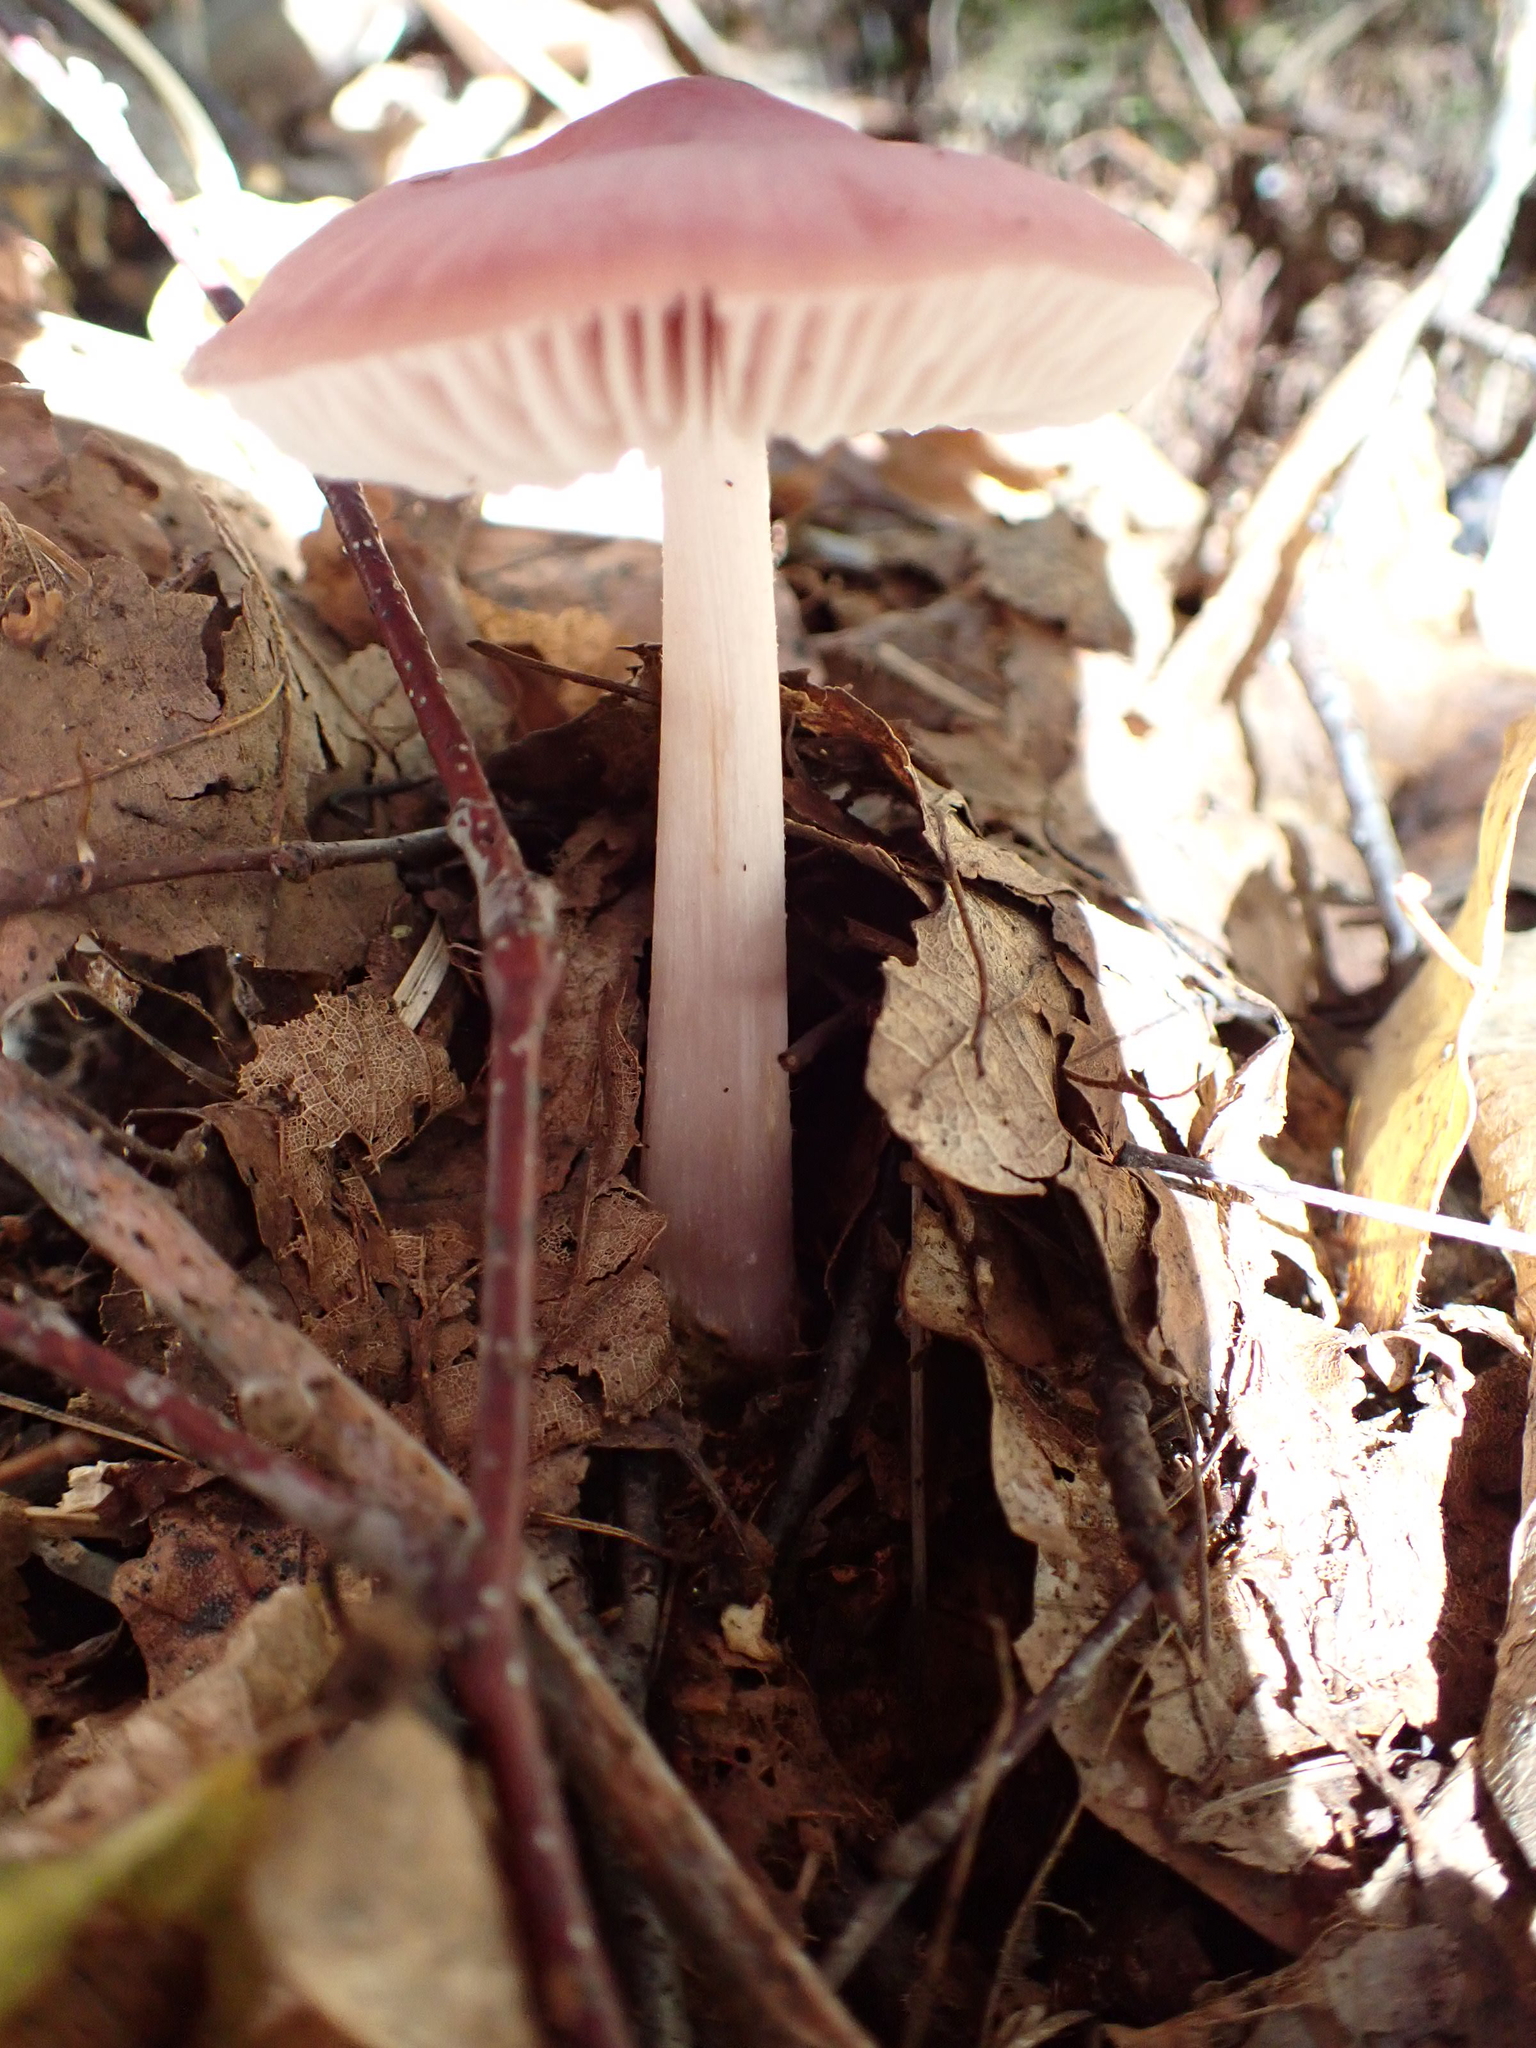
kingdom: Fungi
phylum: Basidiomycota
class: Agaricomycetes
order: Agaricales
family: Mycenaceae
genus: Mycena
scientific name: Mycena rosea
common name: Rosy bonnet
